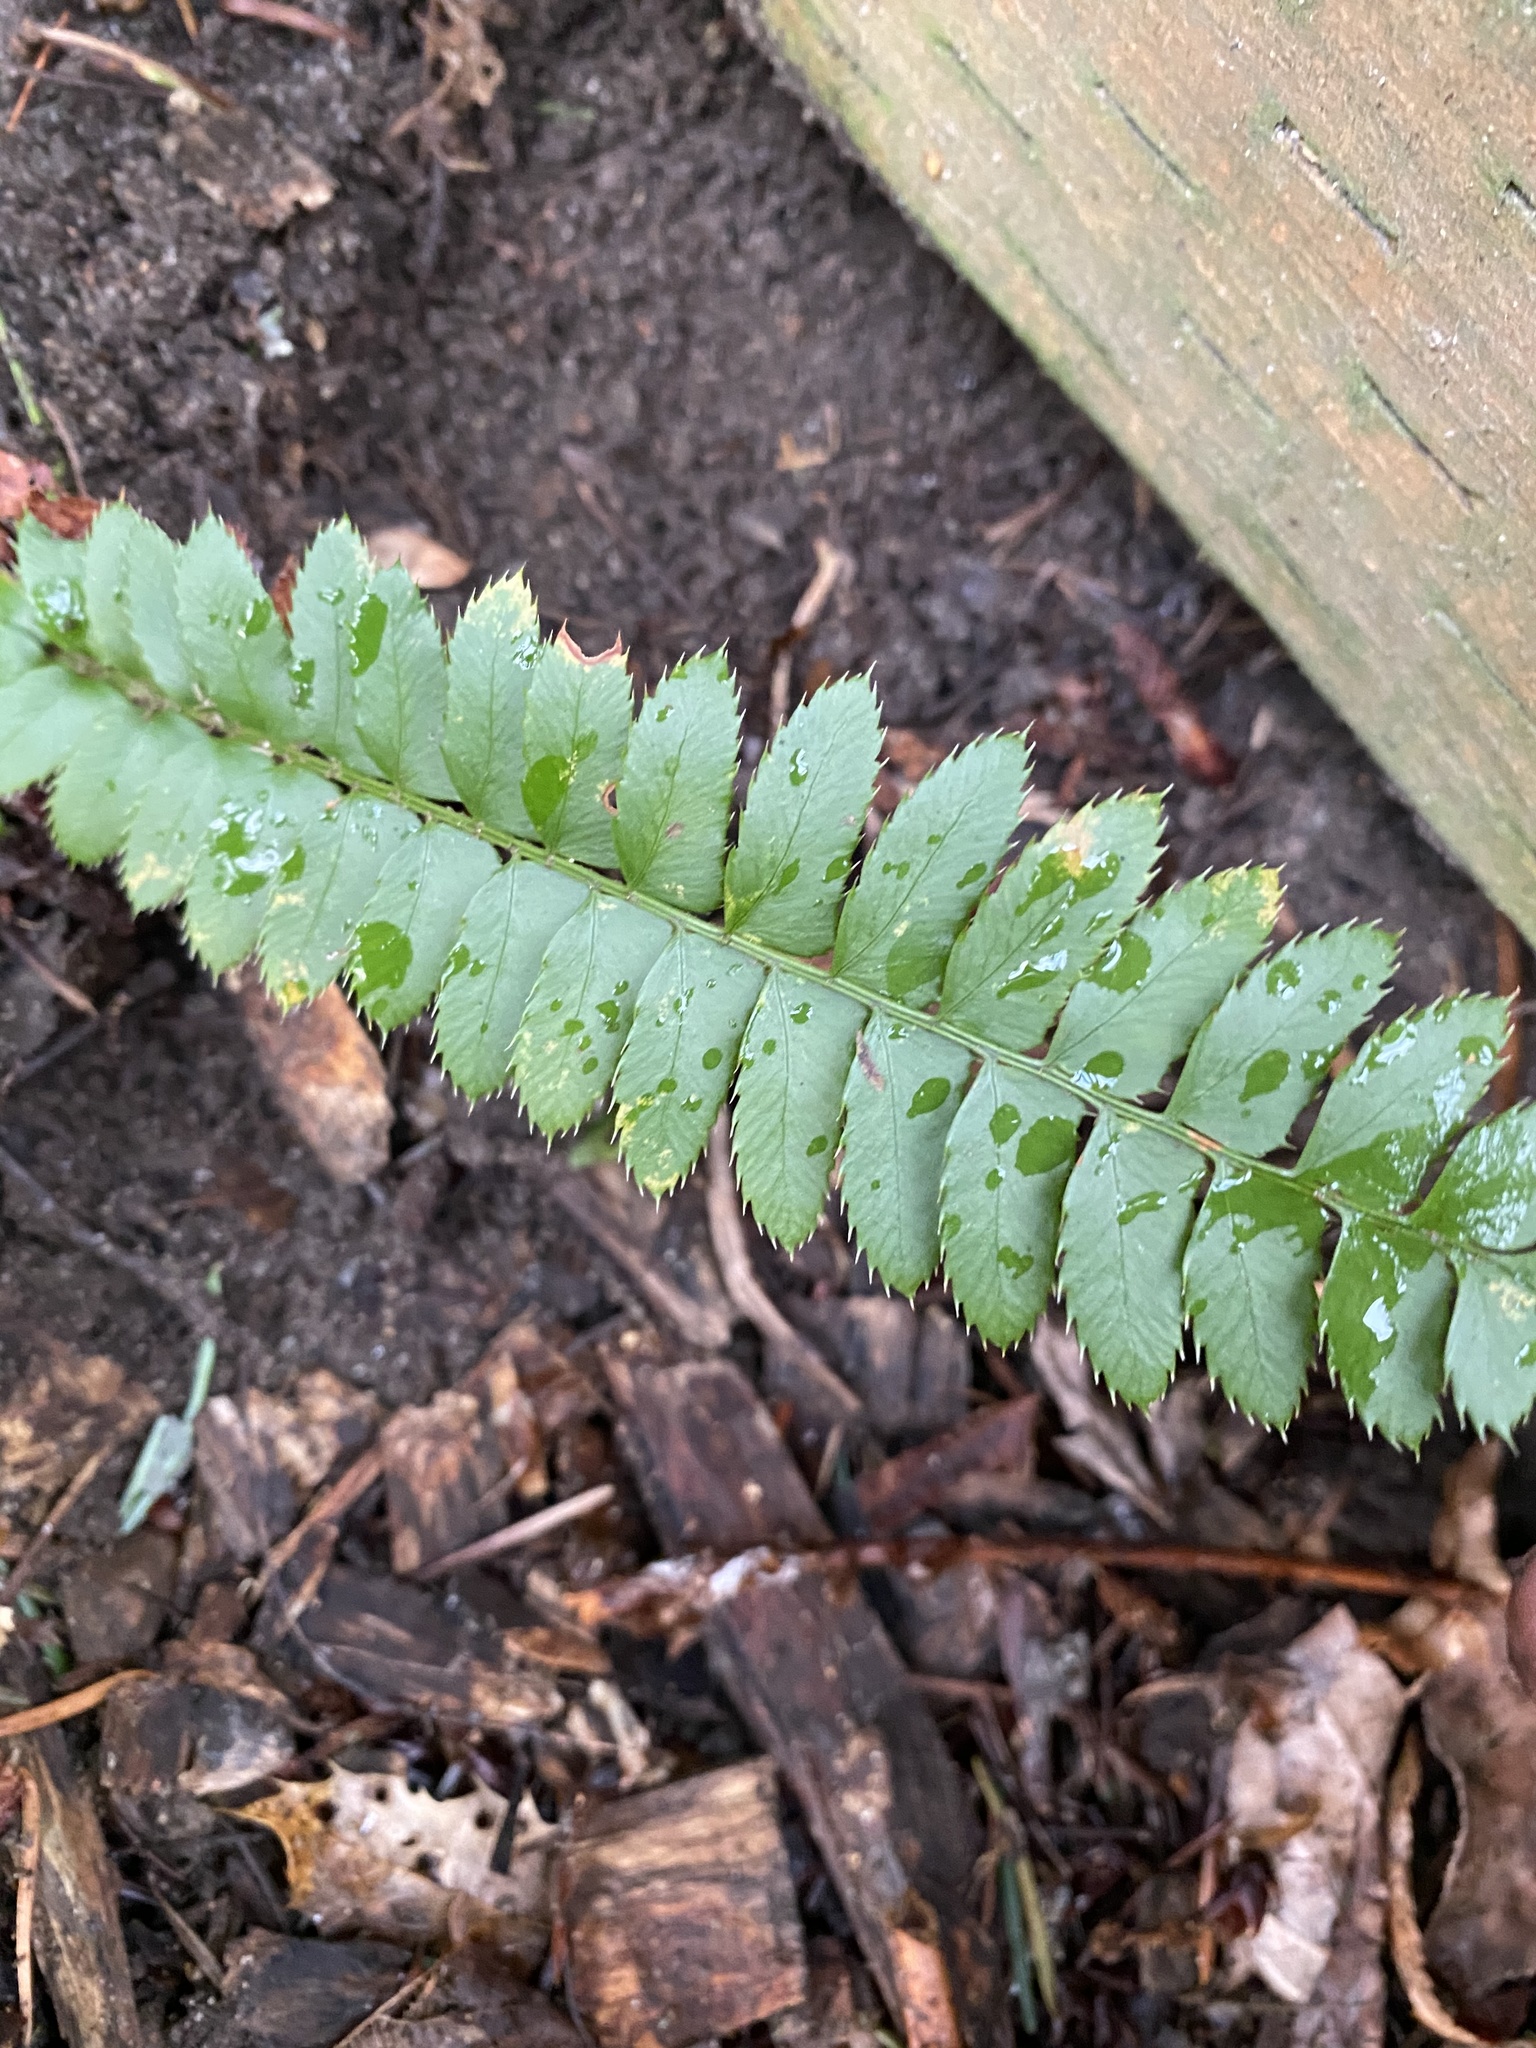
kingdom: Plantae
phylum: Tracheophyta
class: Polypodiopsida
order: Polypodiales
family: Dryopteridaceae
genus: Polystichum
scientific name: Polystichum munitum
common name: Western sword-fern
